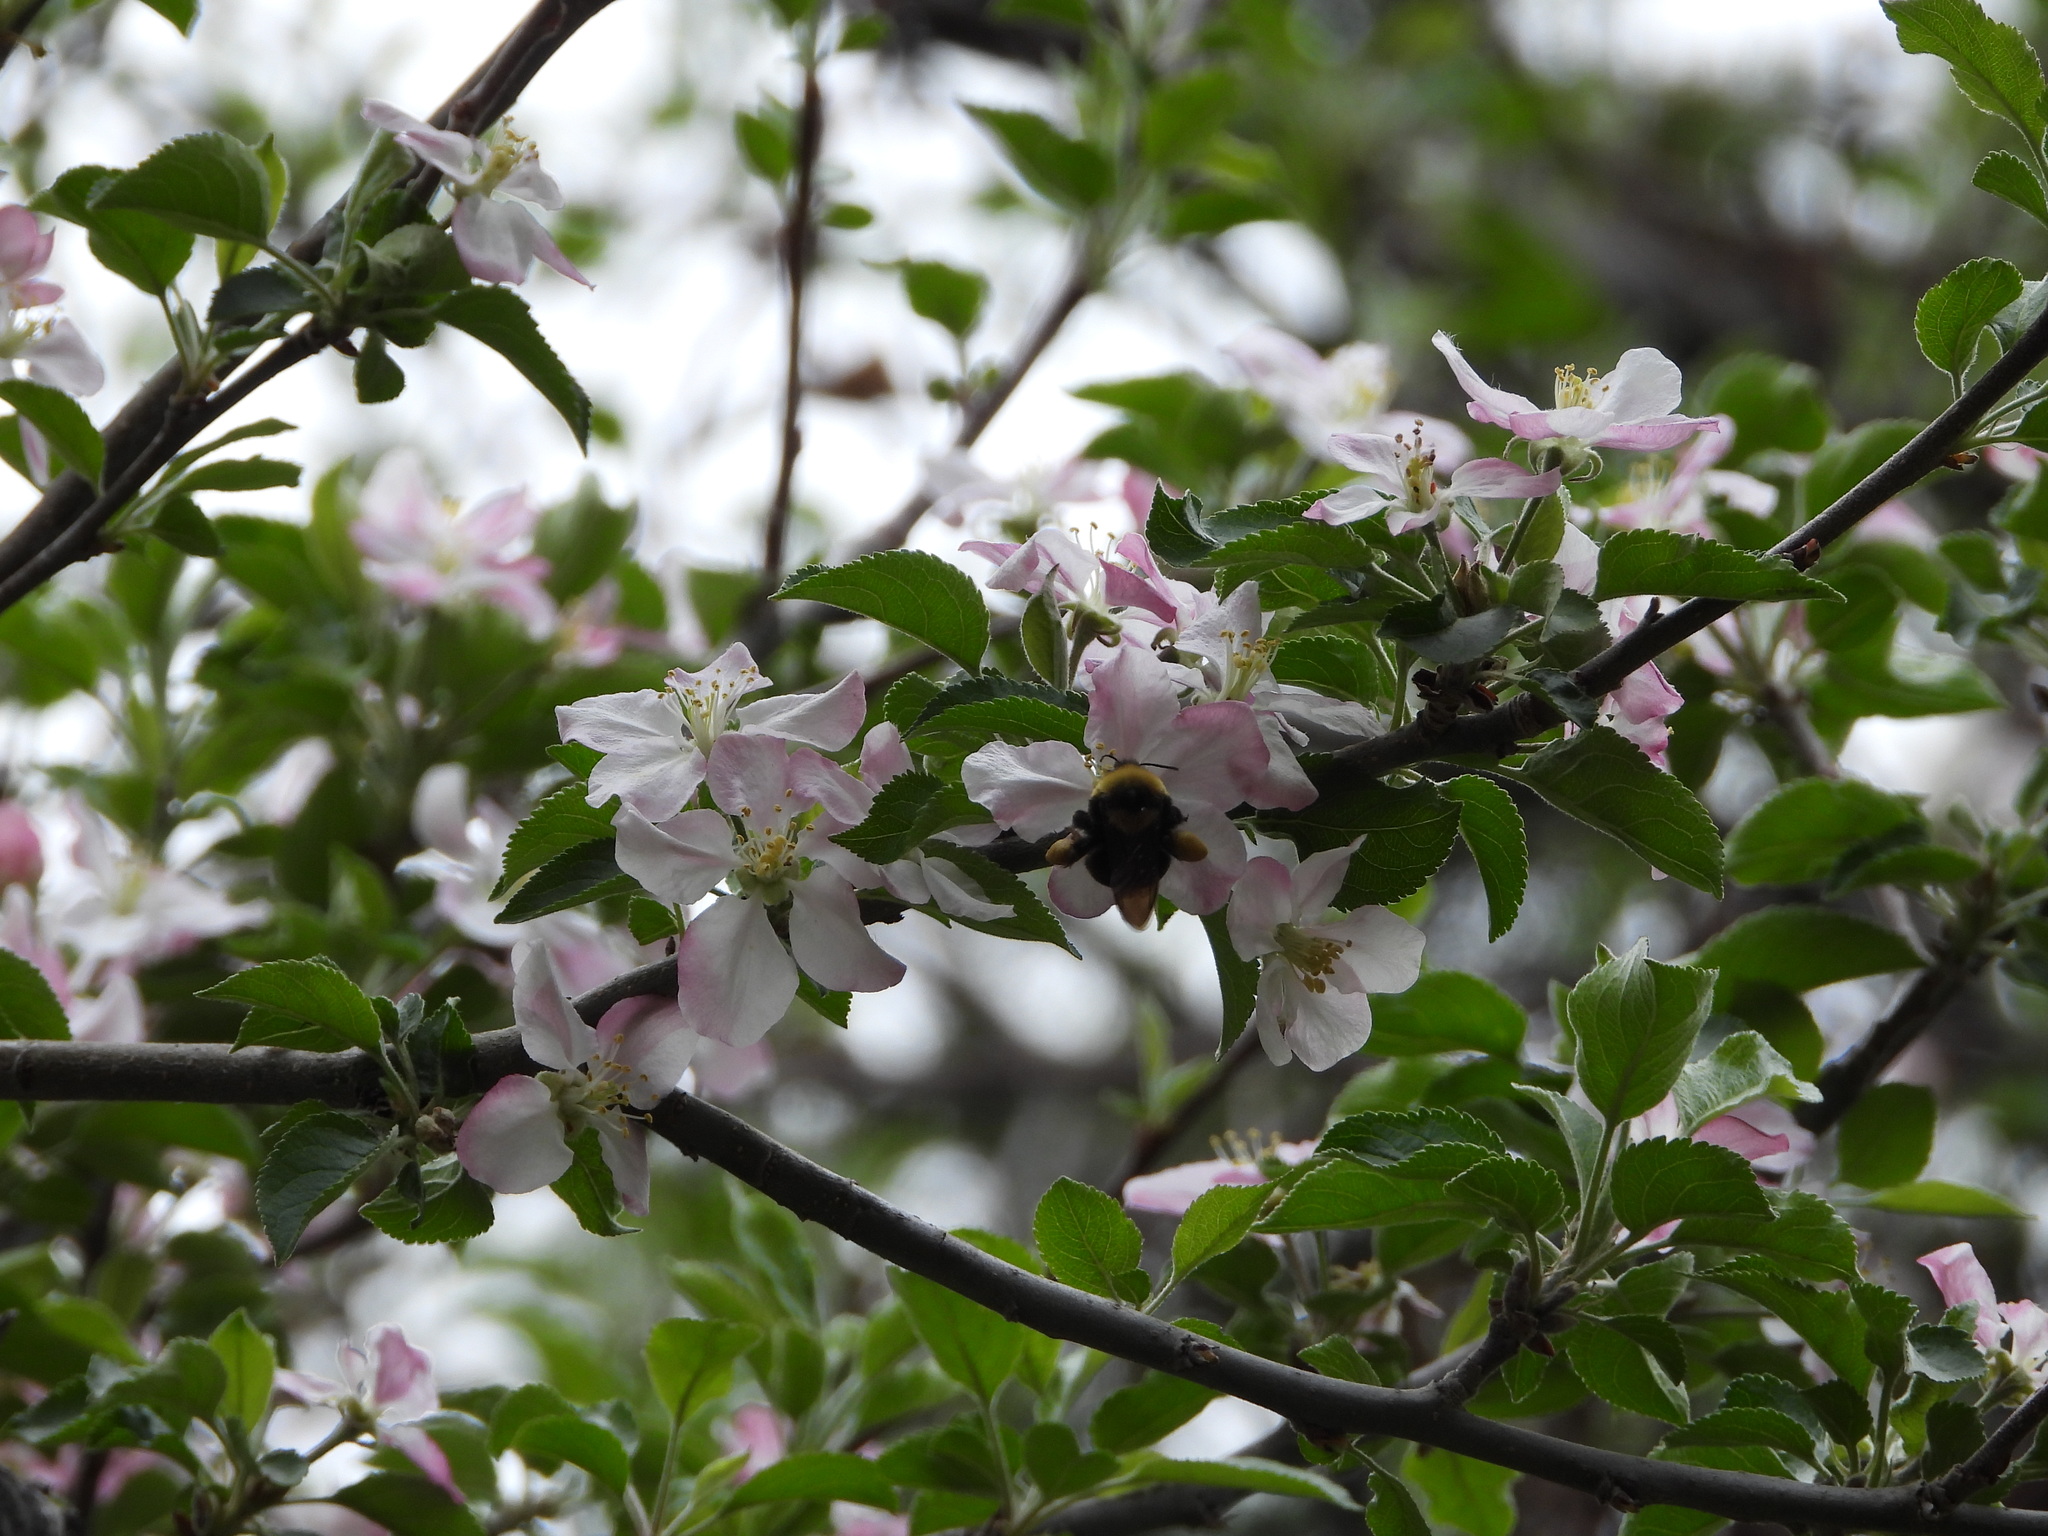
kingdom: Animalia
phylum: Arthropoda
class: Insecta
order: Hymenoptera
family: Apidae
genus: Bombus
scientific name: Bombus californicus
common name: California bumble bee
